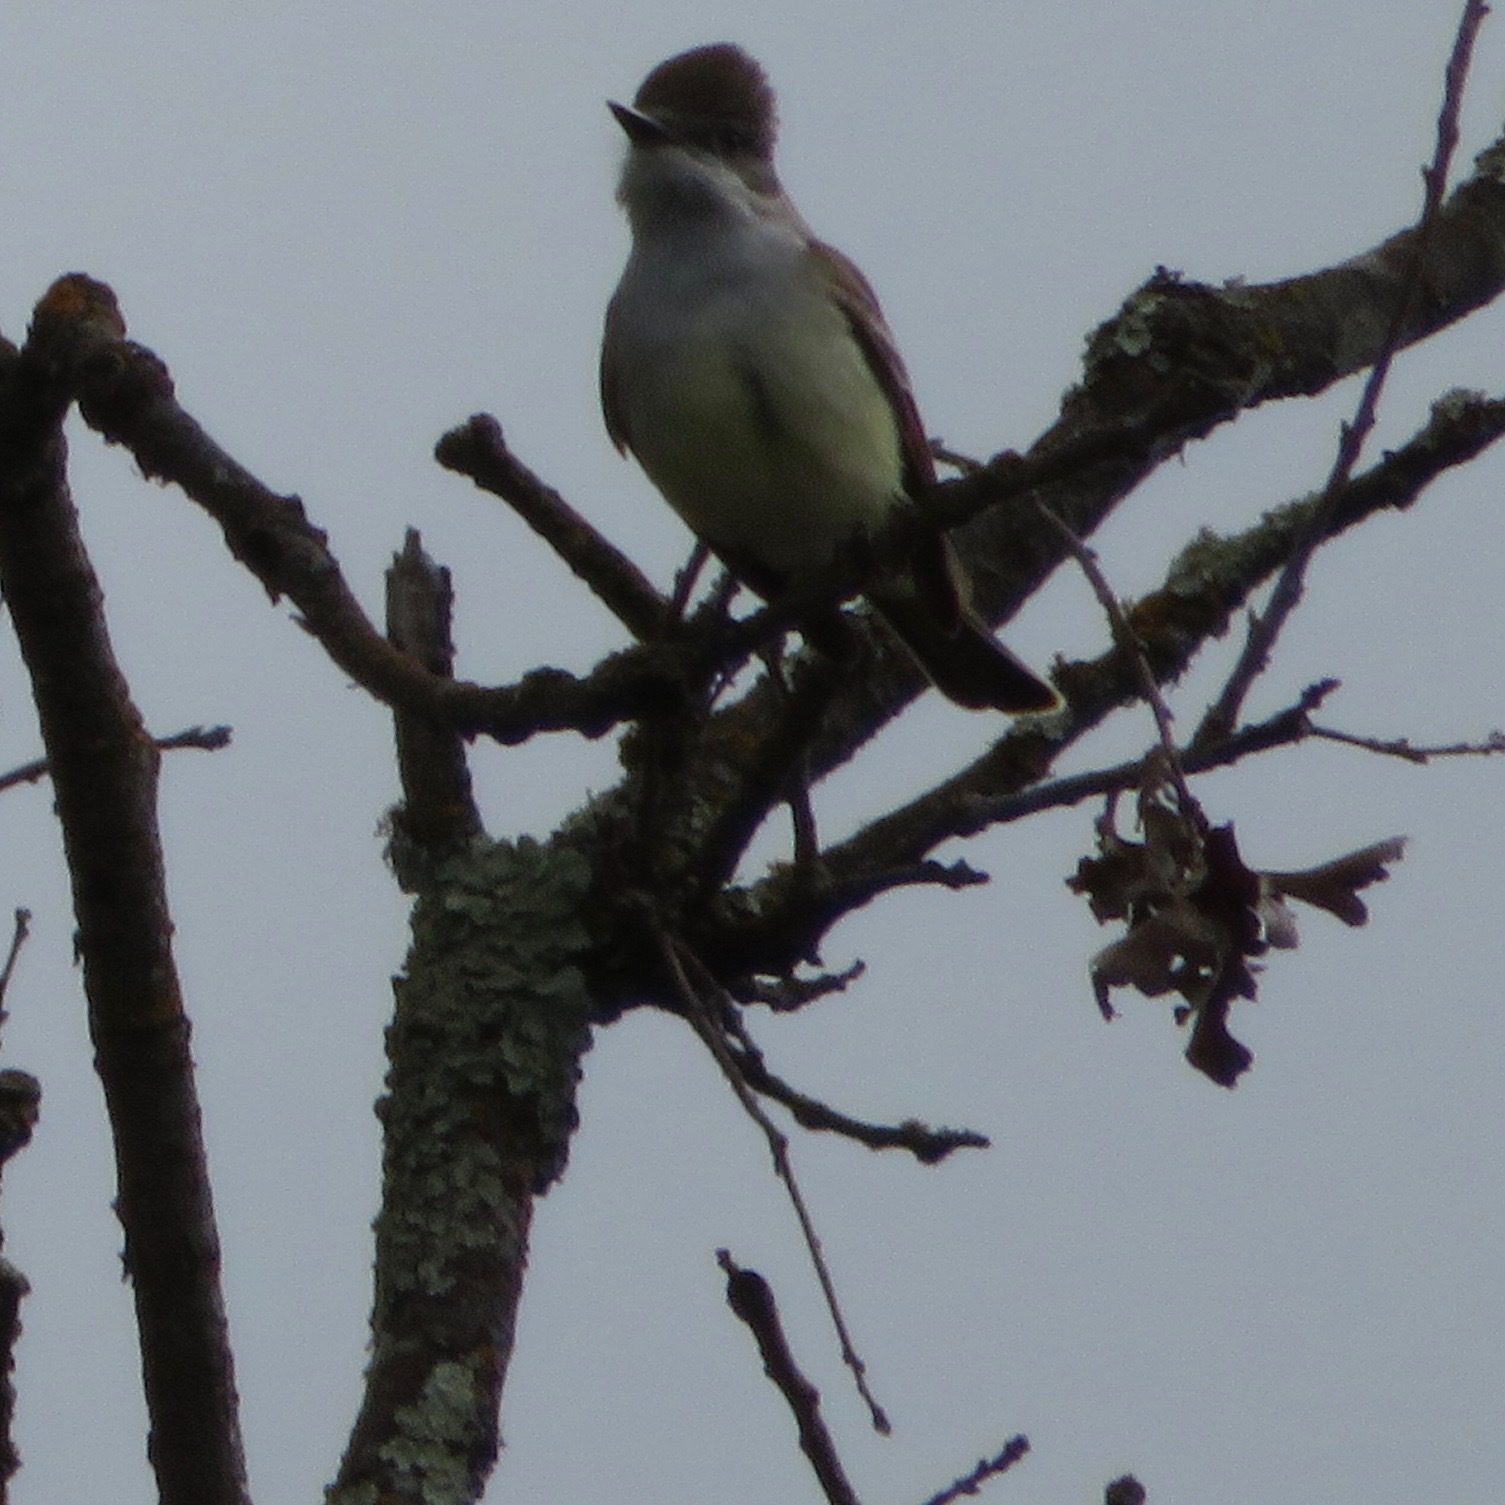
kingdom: Animalia
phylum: Chordata
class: Aves
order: Passeriformes
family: Tyrannidae
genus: Myiarchus
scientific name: Myiarchus cinerascens
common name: Ash-throated flycatcher
